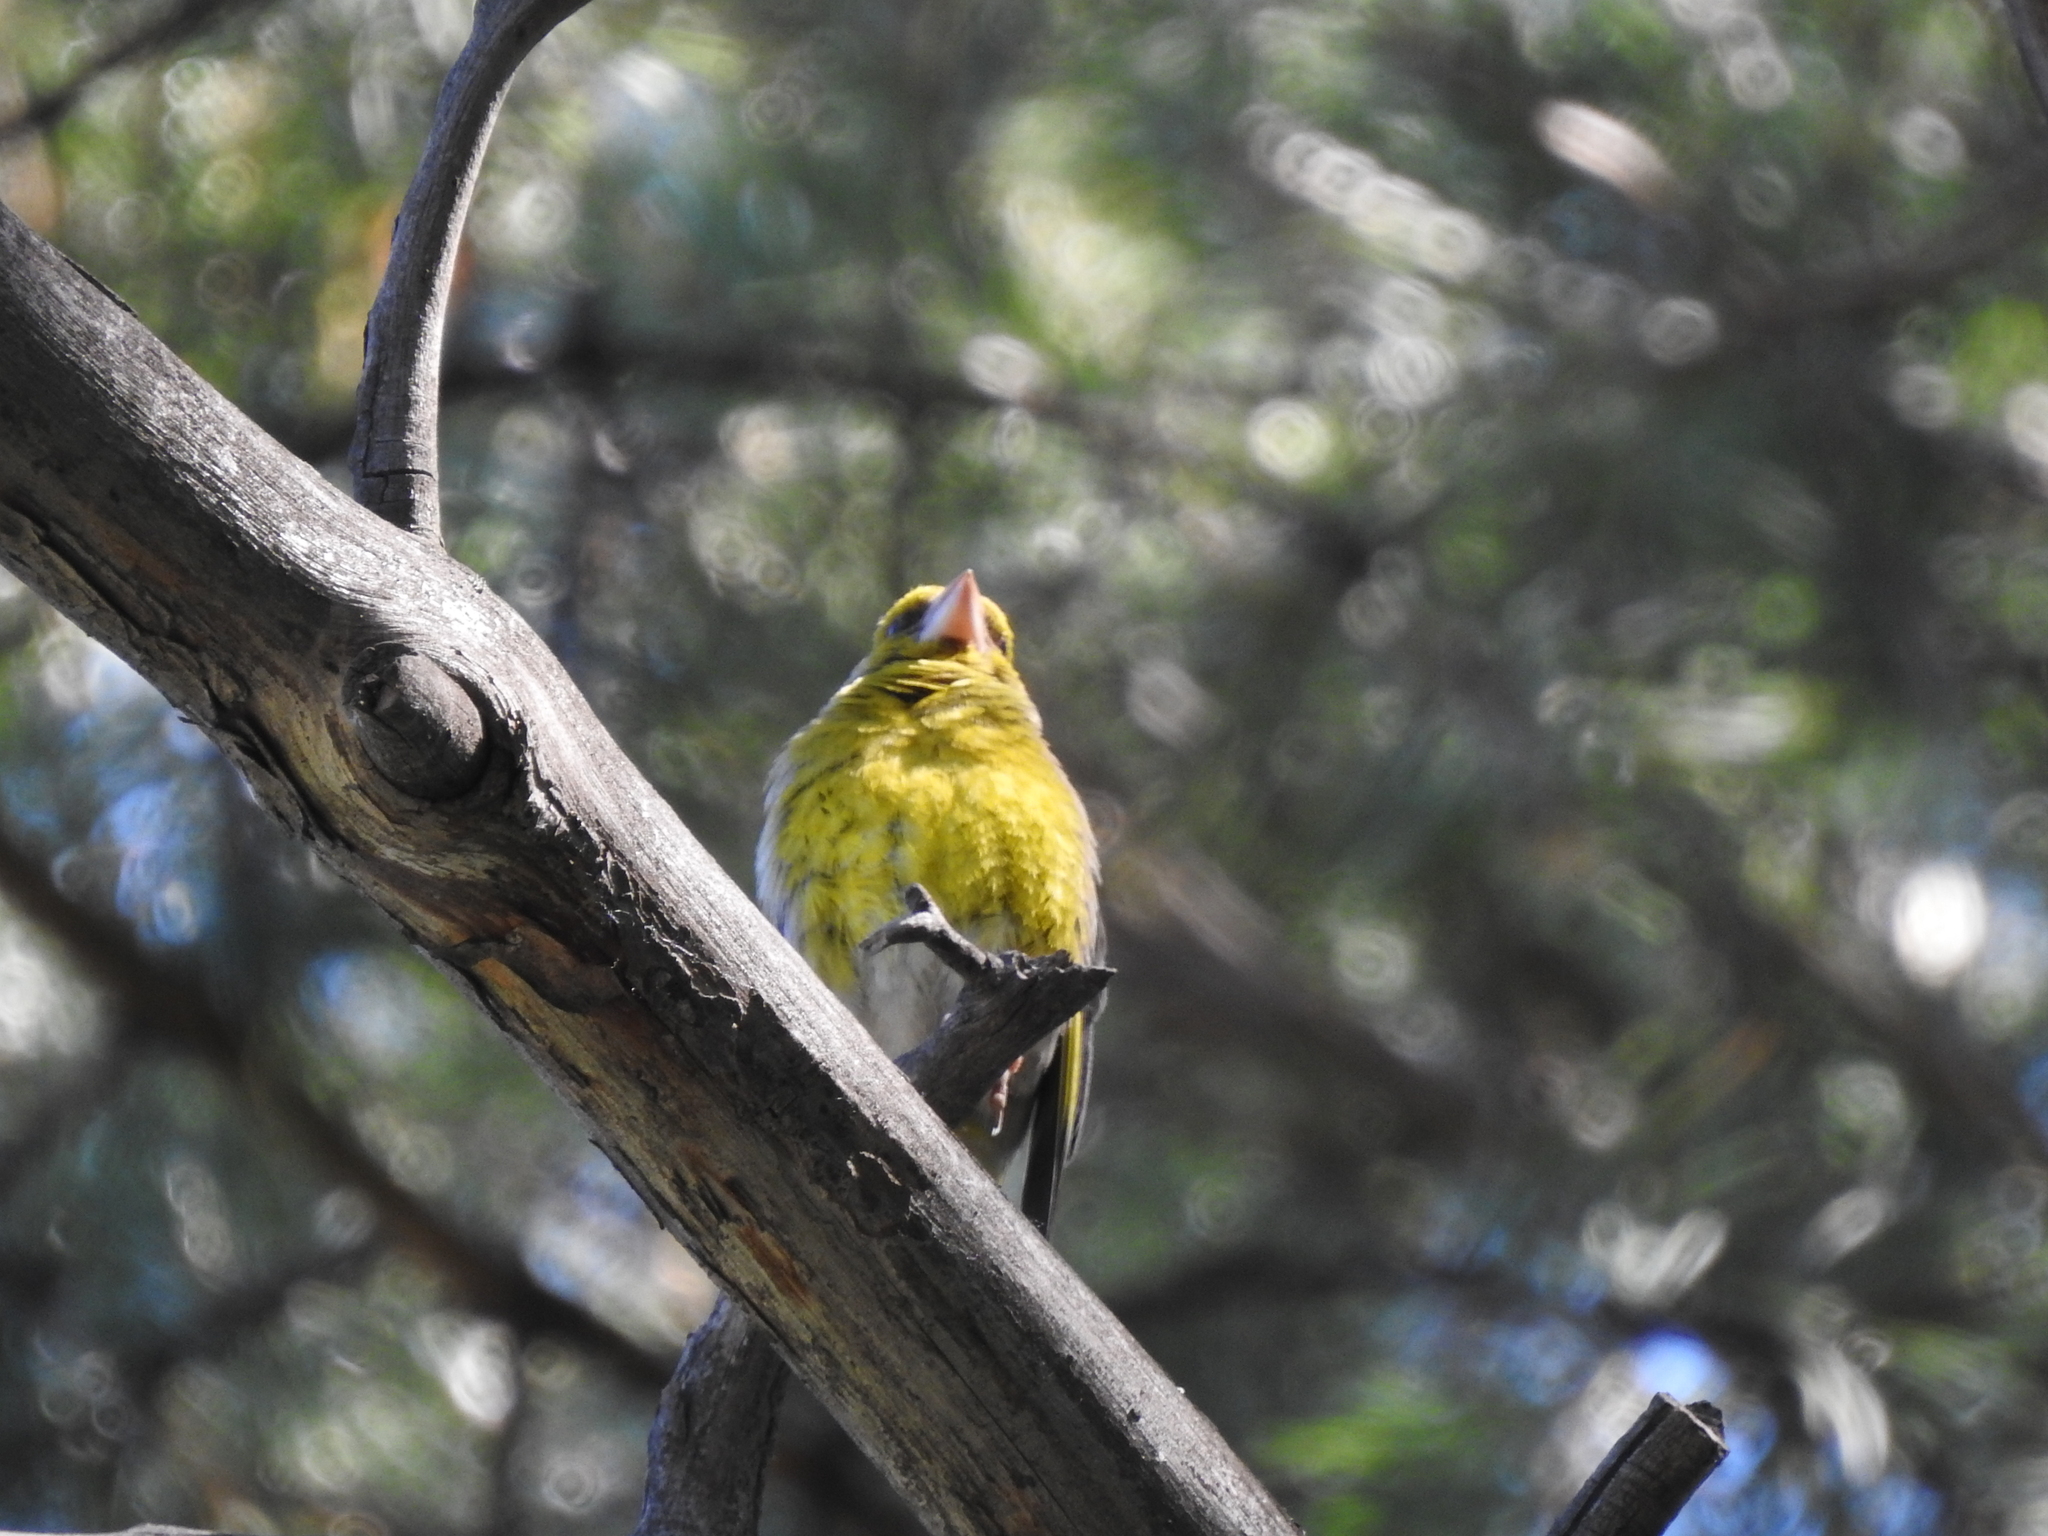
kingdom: Plantae
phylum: Tracheophyta
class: Liliopsida
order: Poales
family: Poaceae
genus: Chloris
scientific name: Chloris chloris
